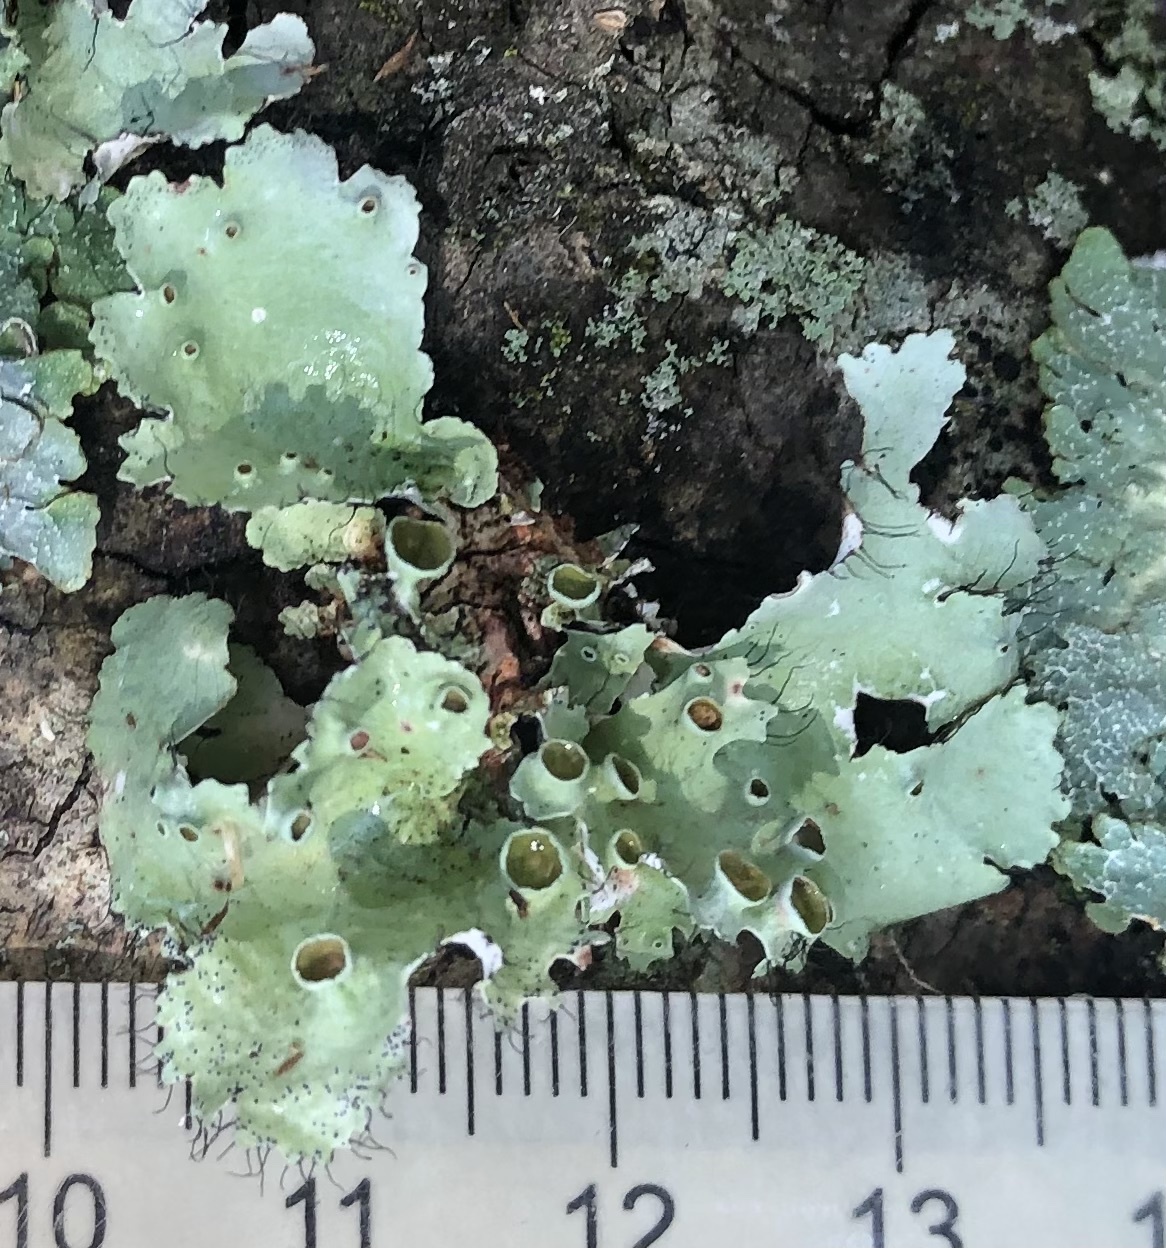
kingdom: Fungi
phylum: Ascomycota
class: Lecanoromycetes
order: Lecanorales
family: Parmeliaceae
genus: Parmotrema
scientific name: Parmotrema perforatum
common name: Perforated ruffle lichen
